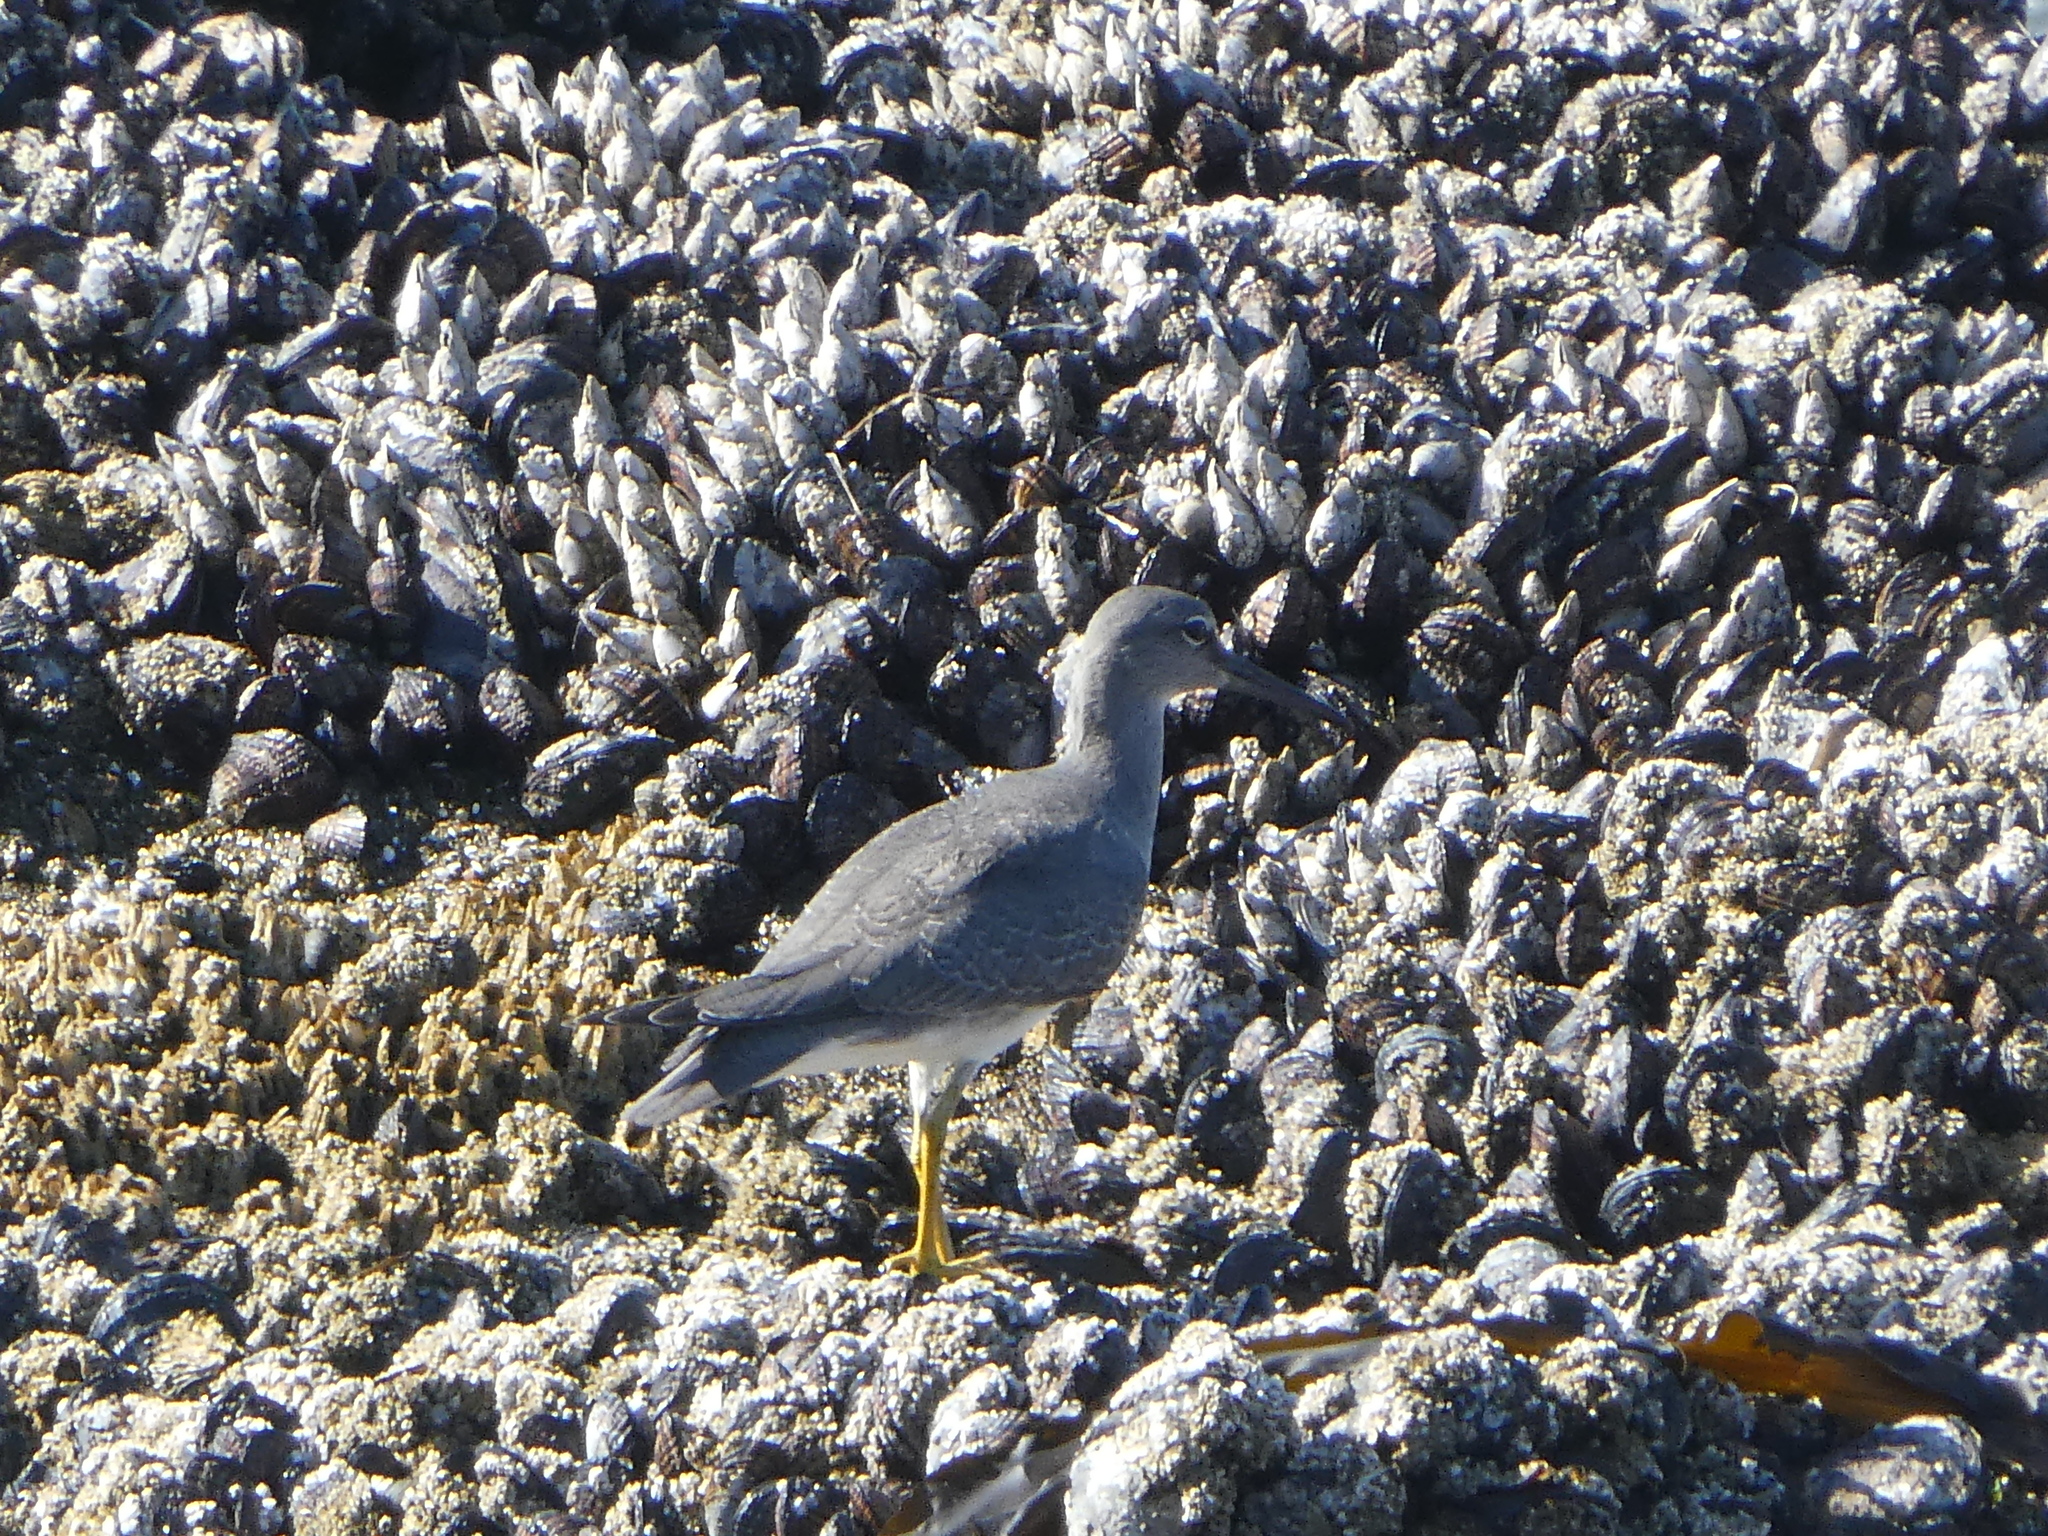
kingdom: Animalia
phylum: Chordata
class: Aves
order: Charadriiformes
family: Scolopacidae
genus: Tringa
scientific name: Tringa incana
